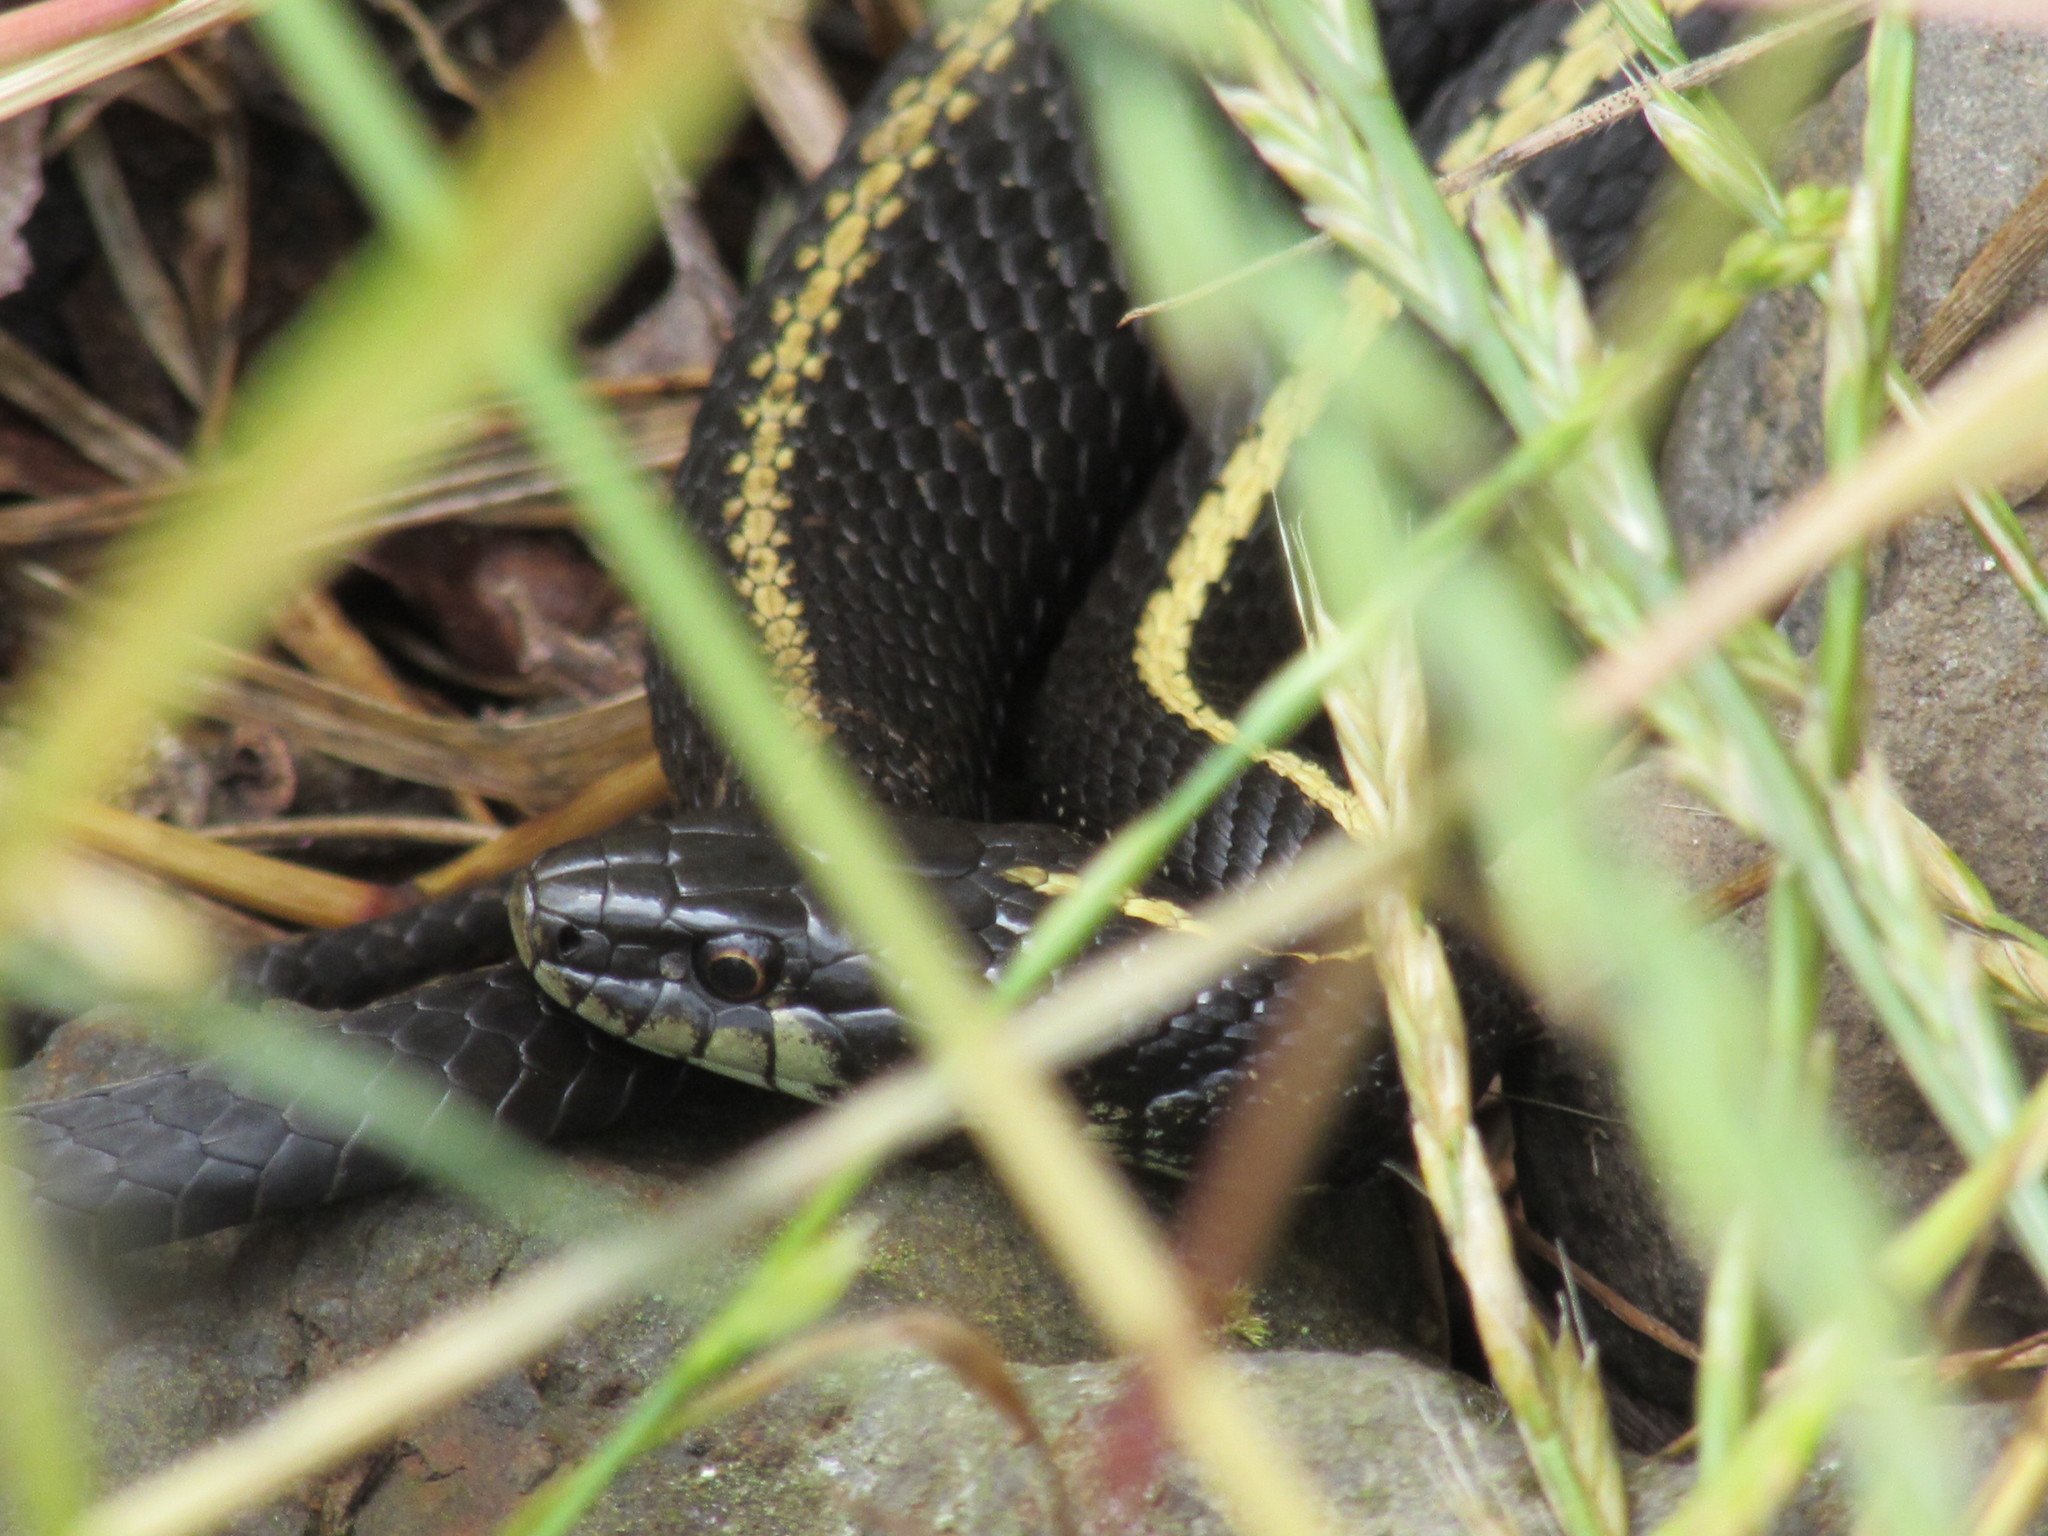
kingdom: Animalia
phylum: Chordata
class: Squamata
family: Colubridae
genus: Thamnophis
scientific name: Thamnophis ordinoides
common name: Northwestern garter snake
